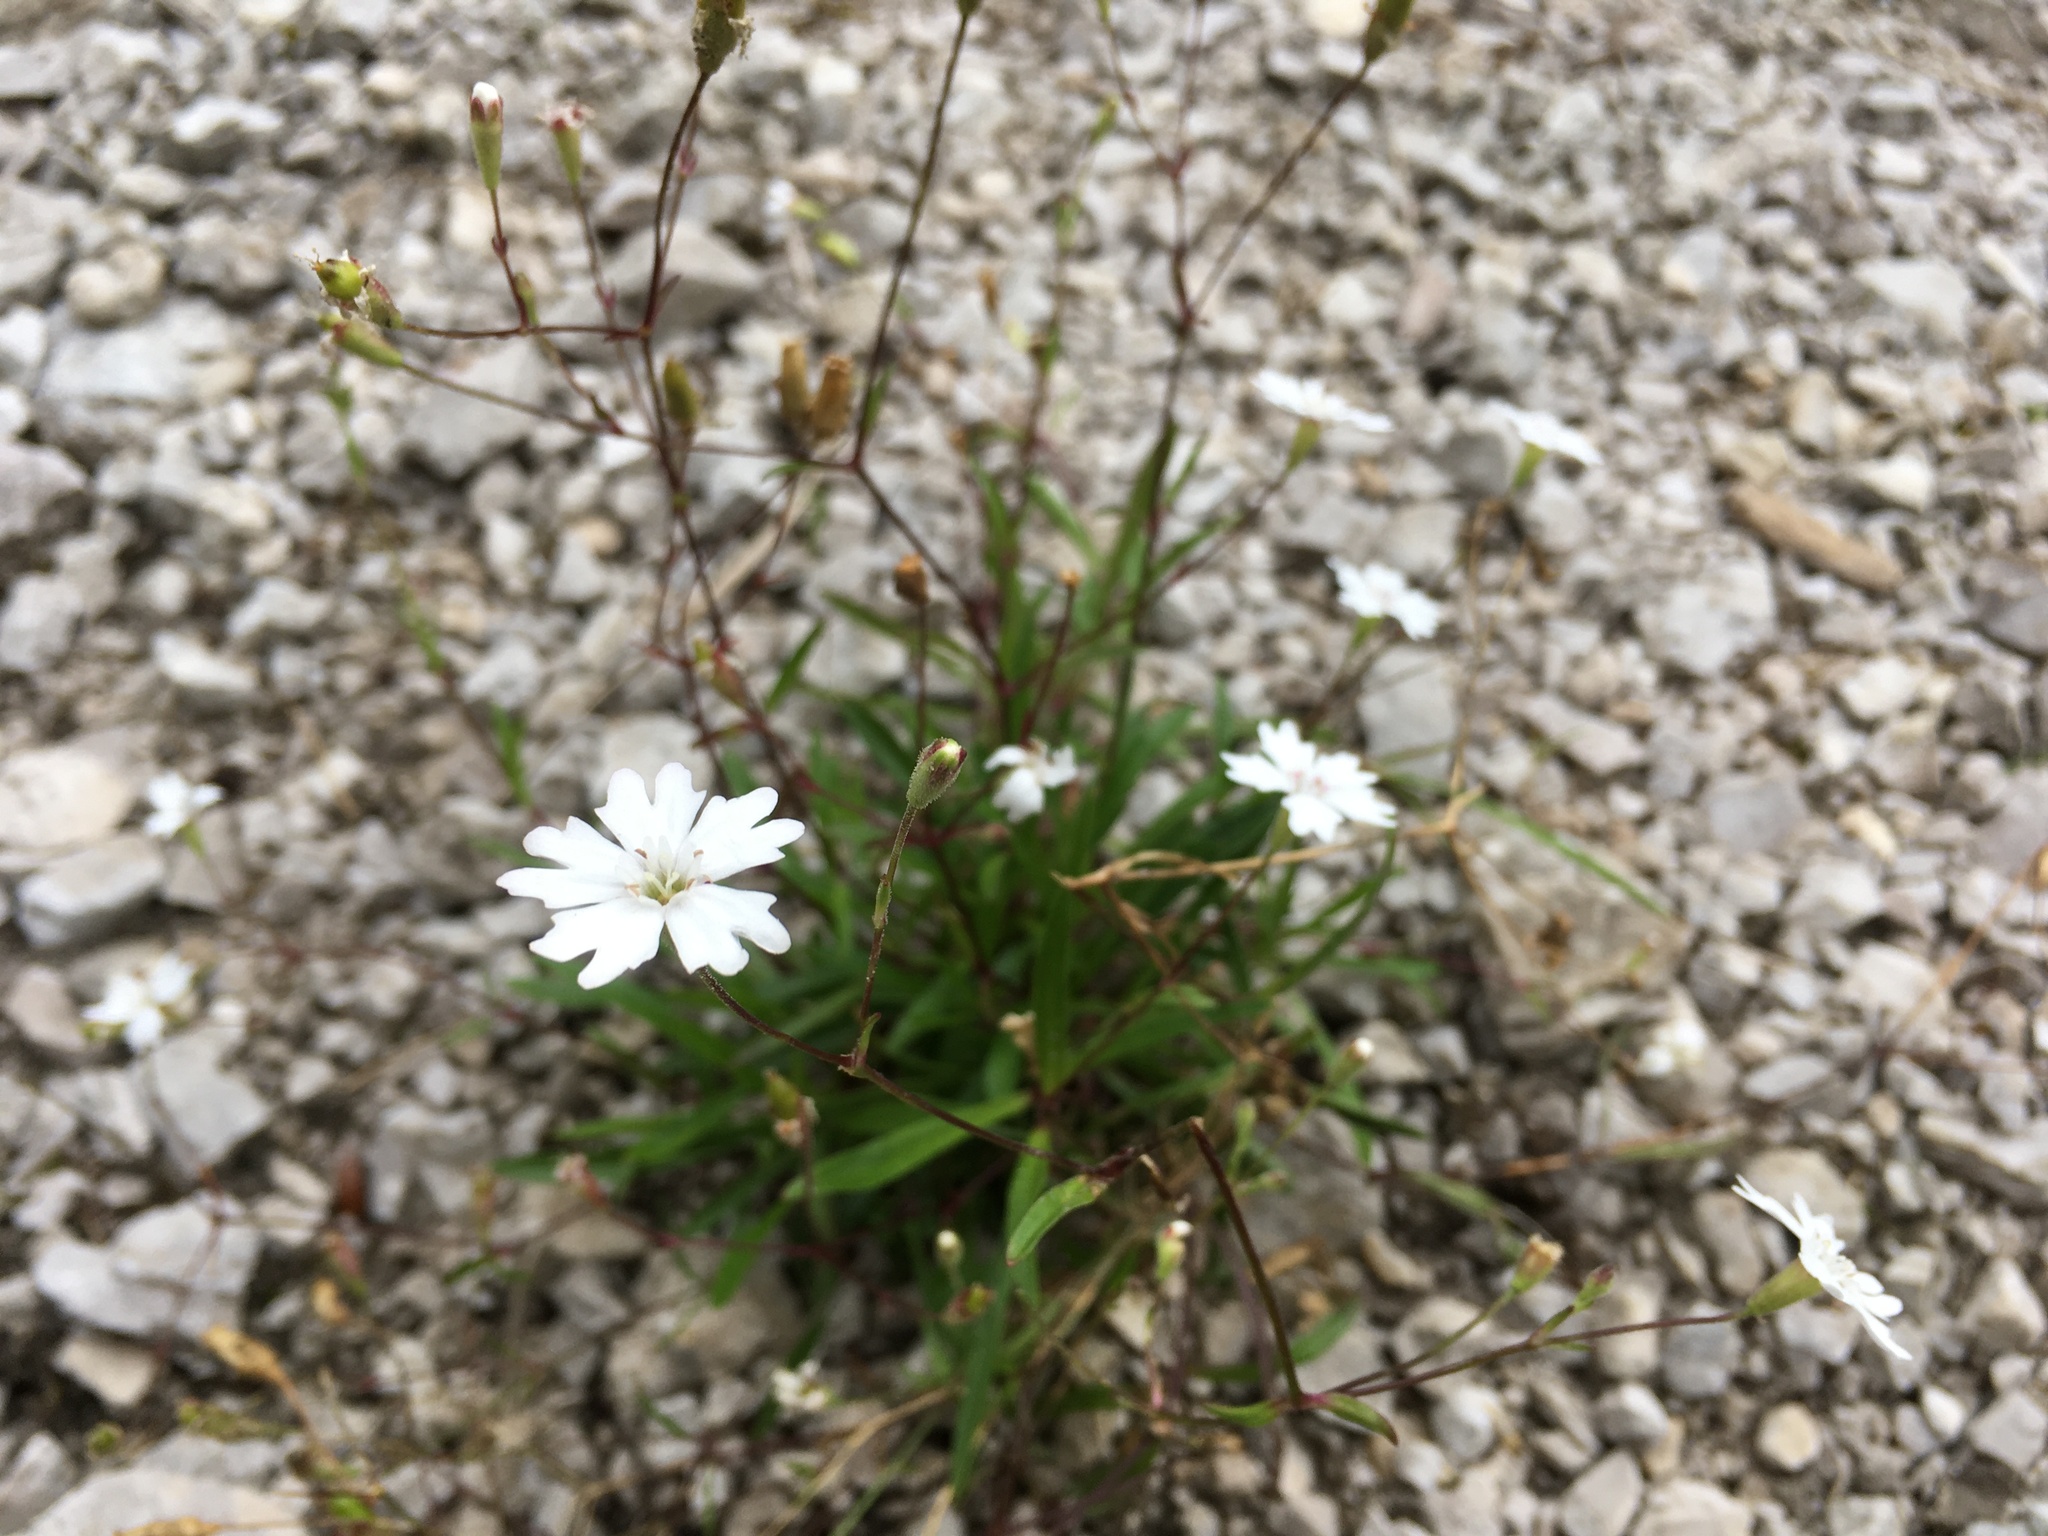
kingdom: Plantae
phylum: Tracheophyta
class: Magnoliopsida
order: Caryophyllales
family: Caryophyllaceae
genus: Heliosperma
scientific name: Heliosperma alpestre
